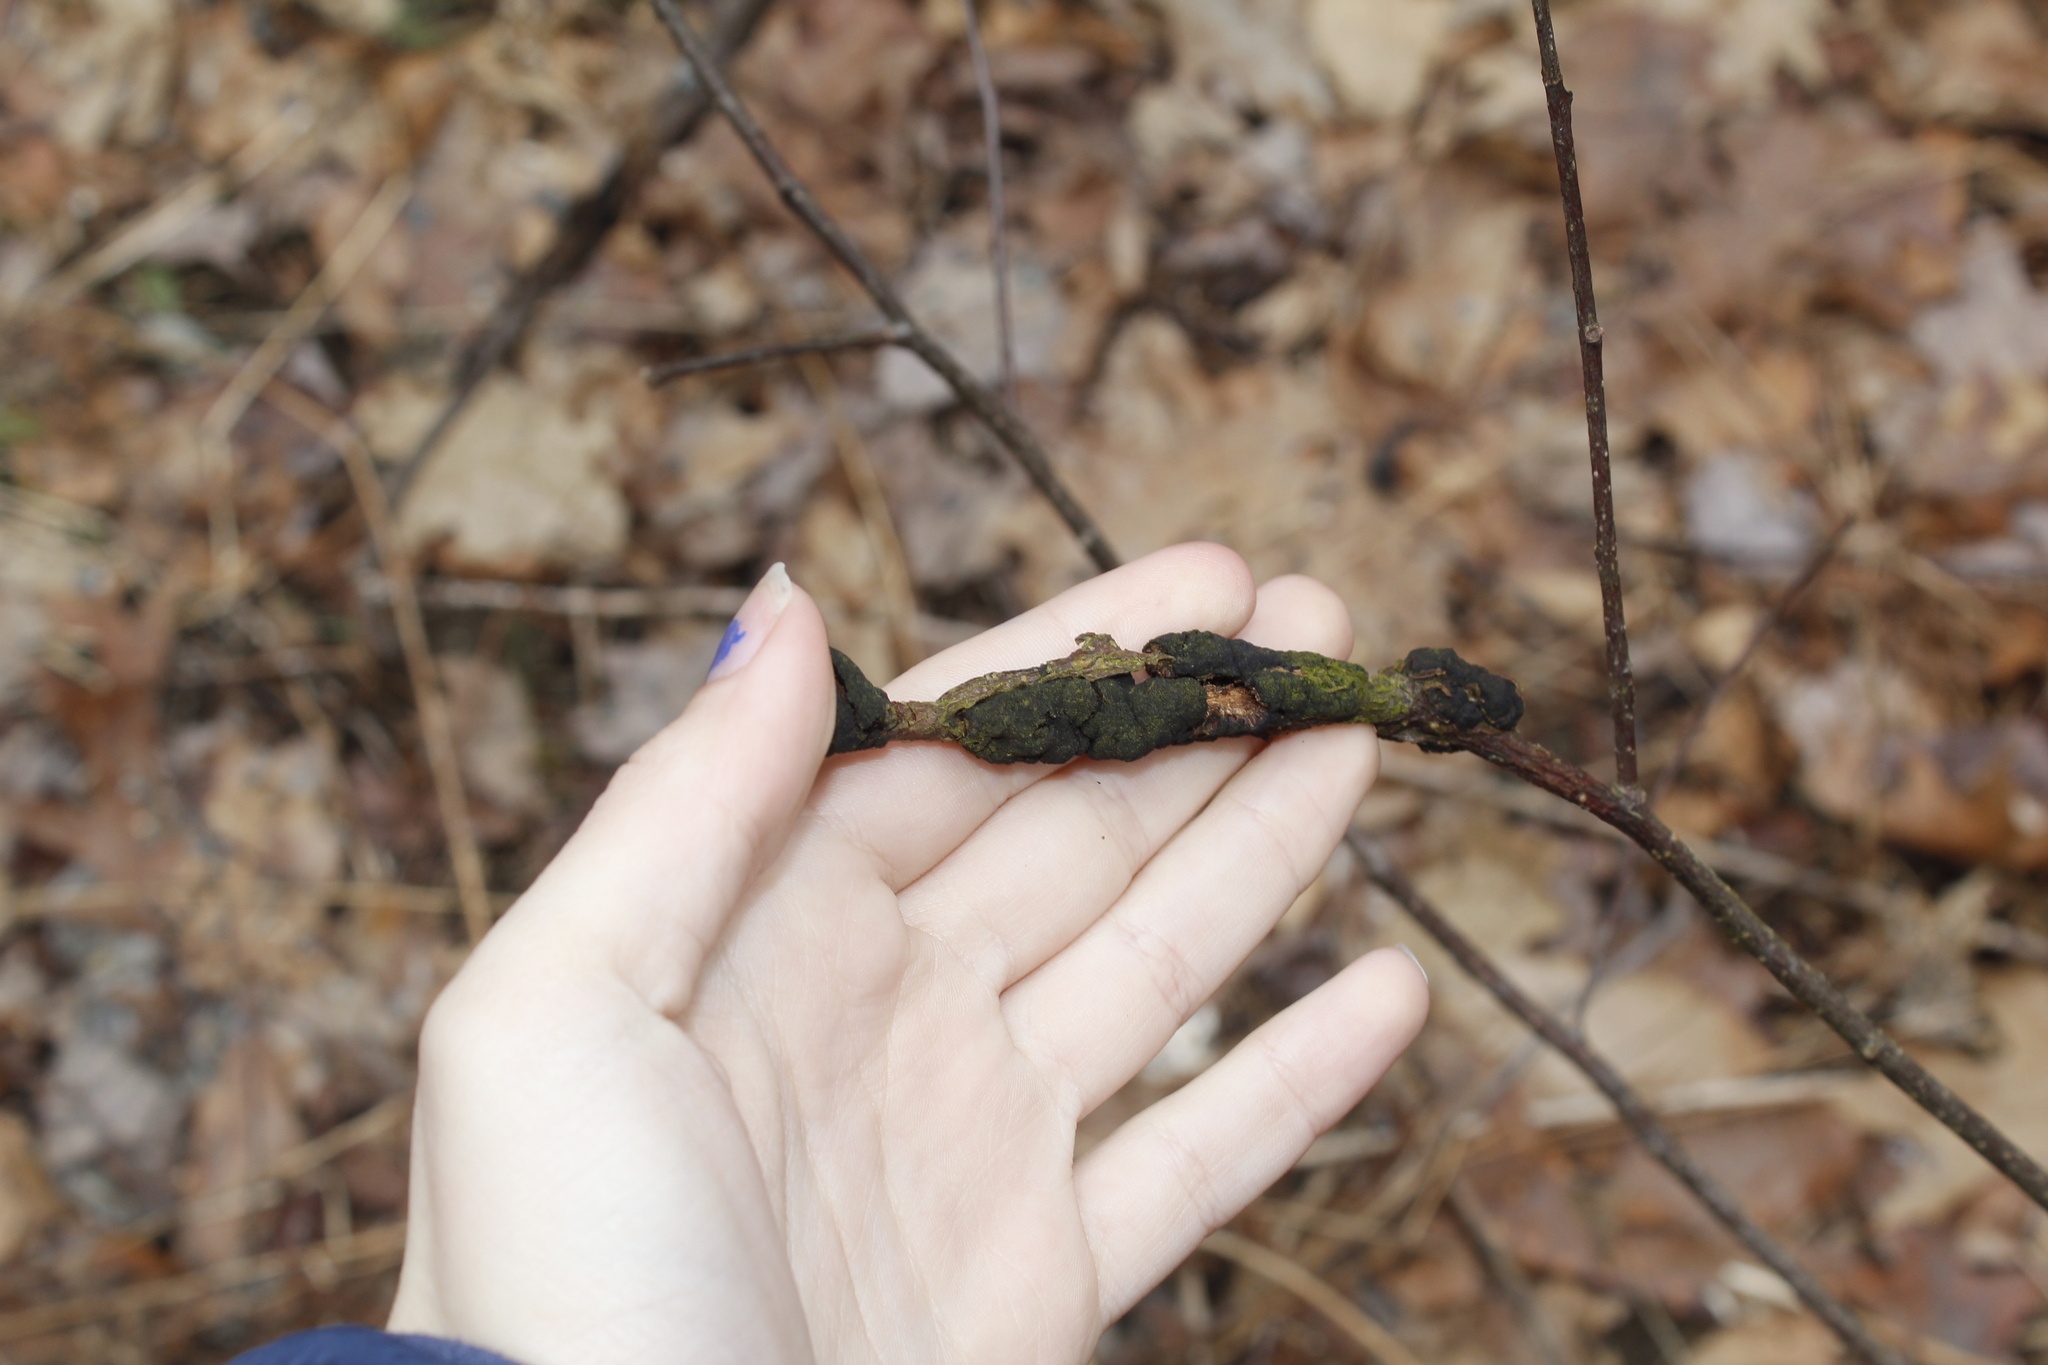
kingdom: Plantae
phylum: Tracheophyta
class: Magnoliopsida
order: Rosales
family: Rosaceae
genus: Prunus
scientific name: Prunus
